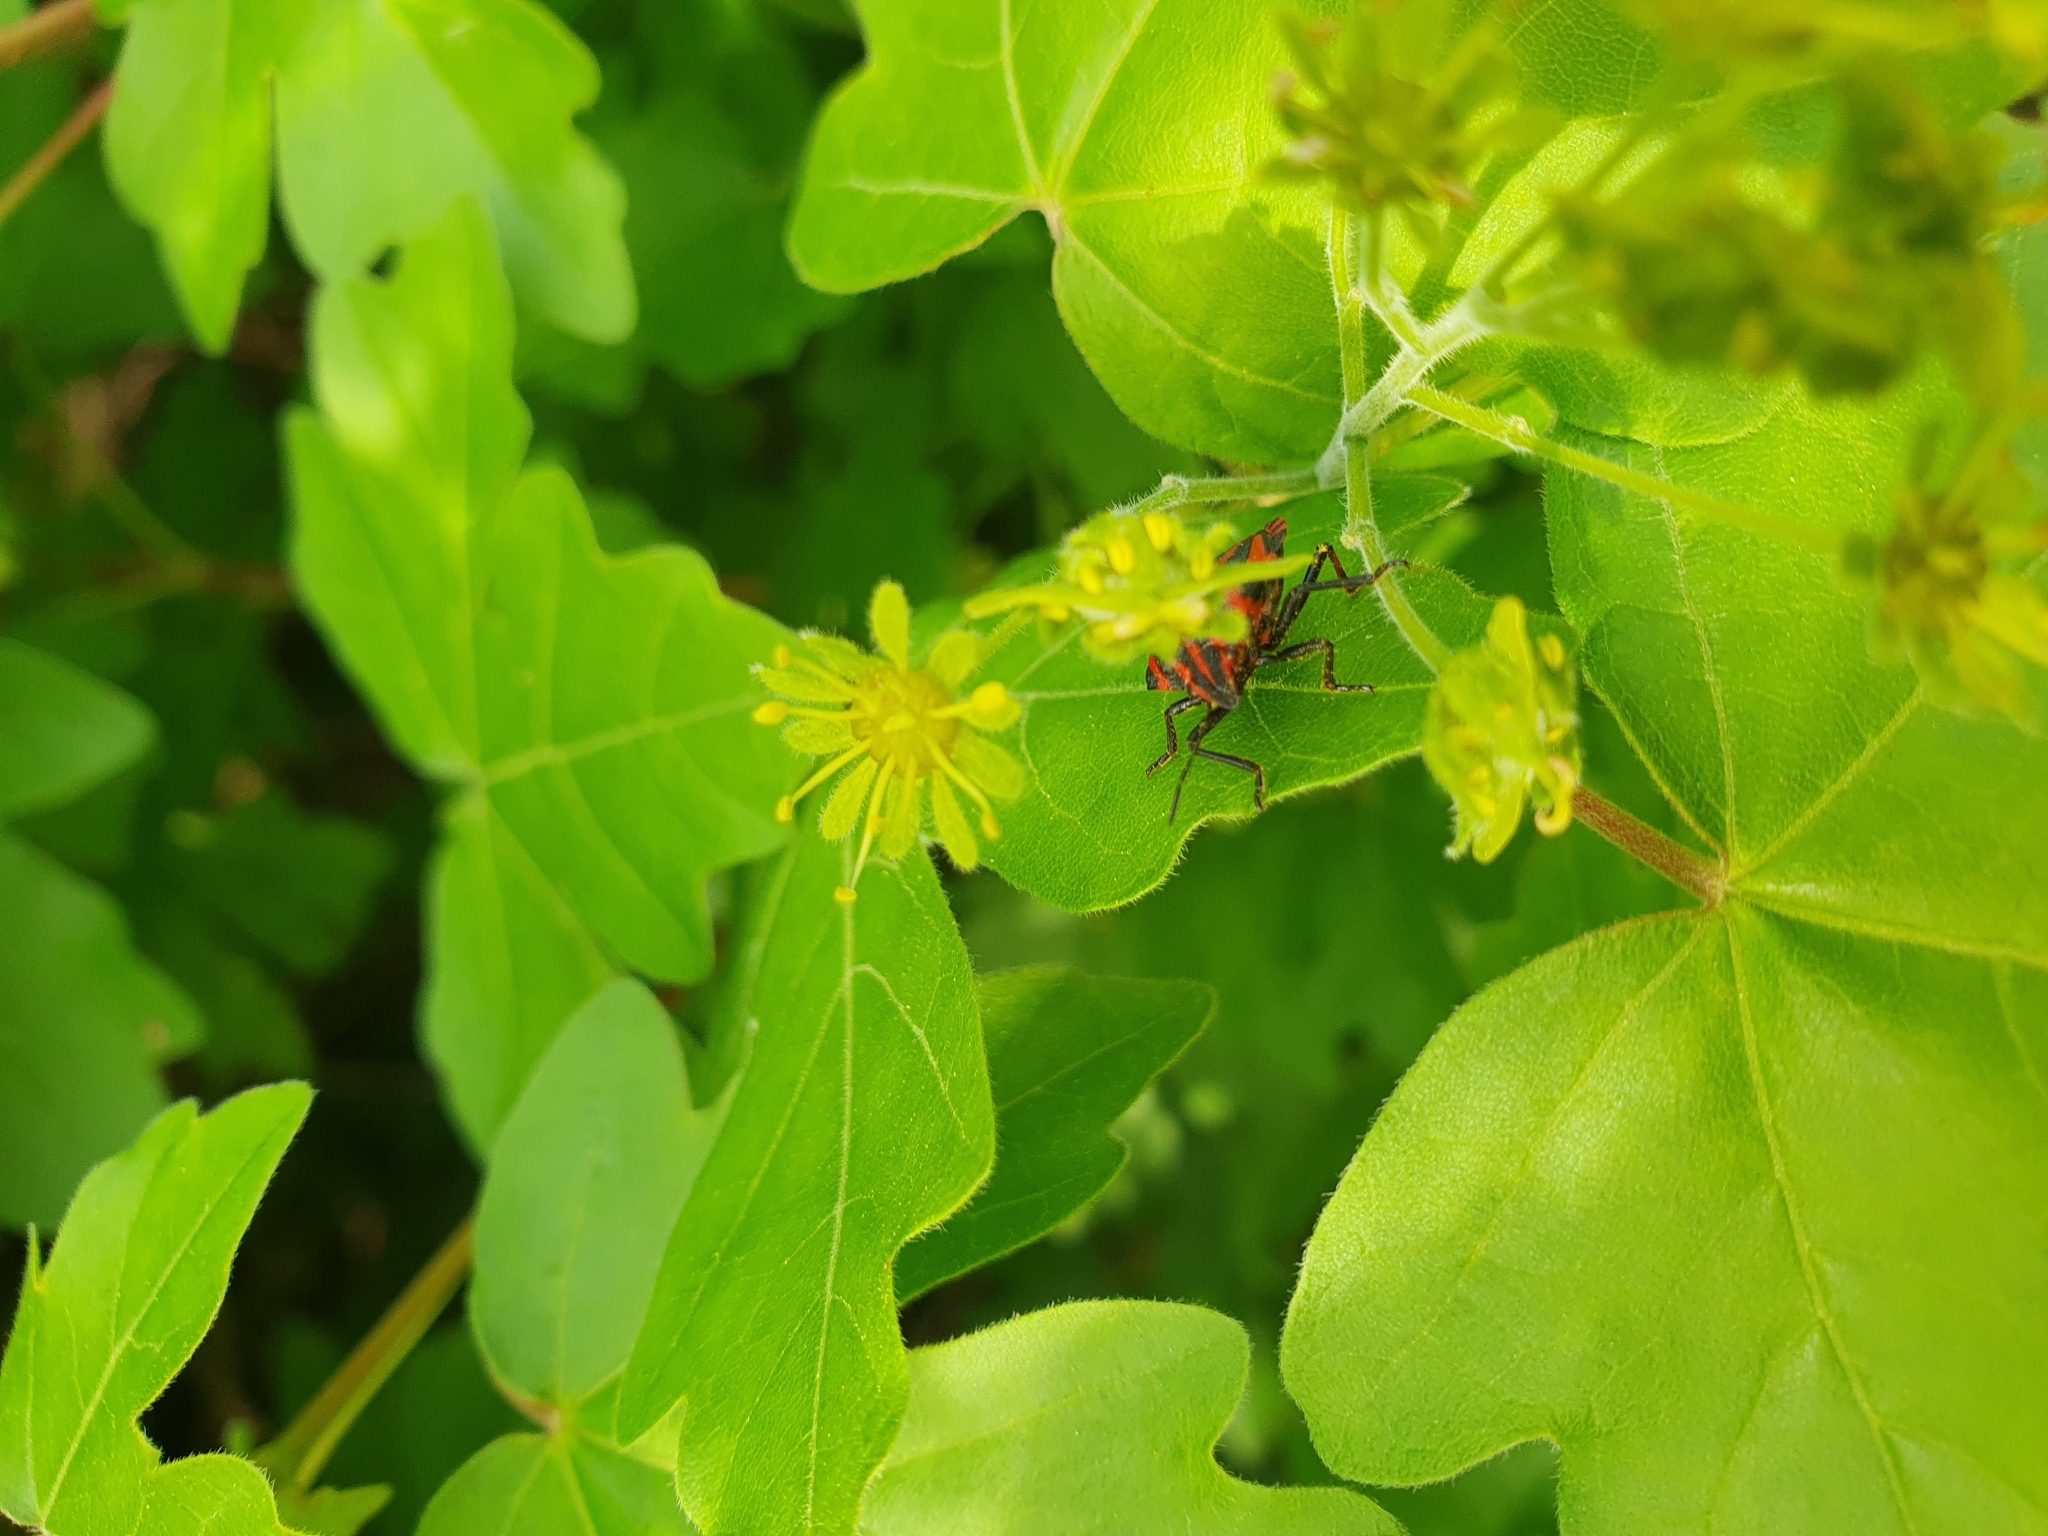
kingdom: Animalia
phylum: Arthropoda
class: Insecta
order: Hemiptera
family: Pentatomidae
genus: Graphosoma
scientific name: Graphosoma italicum
